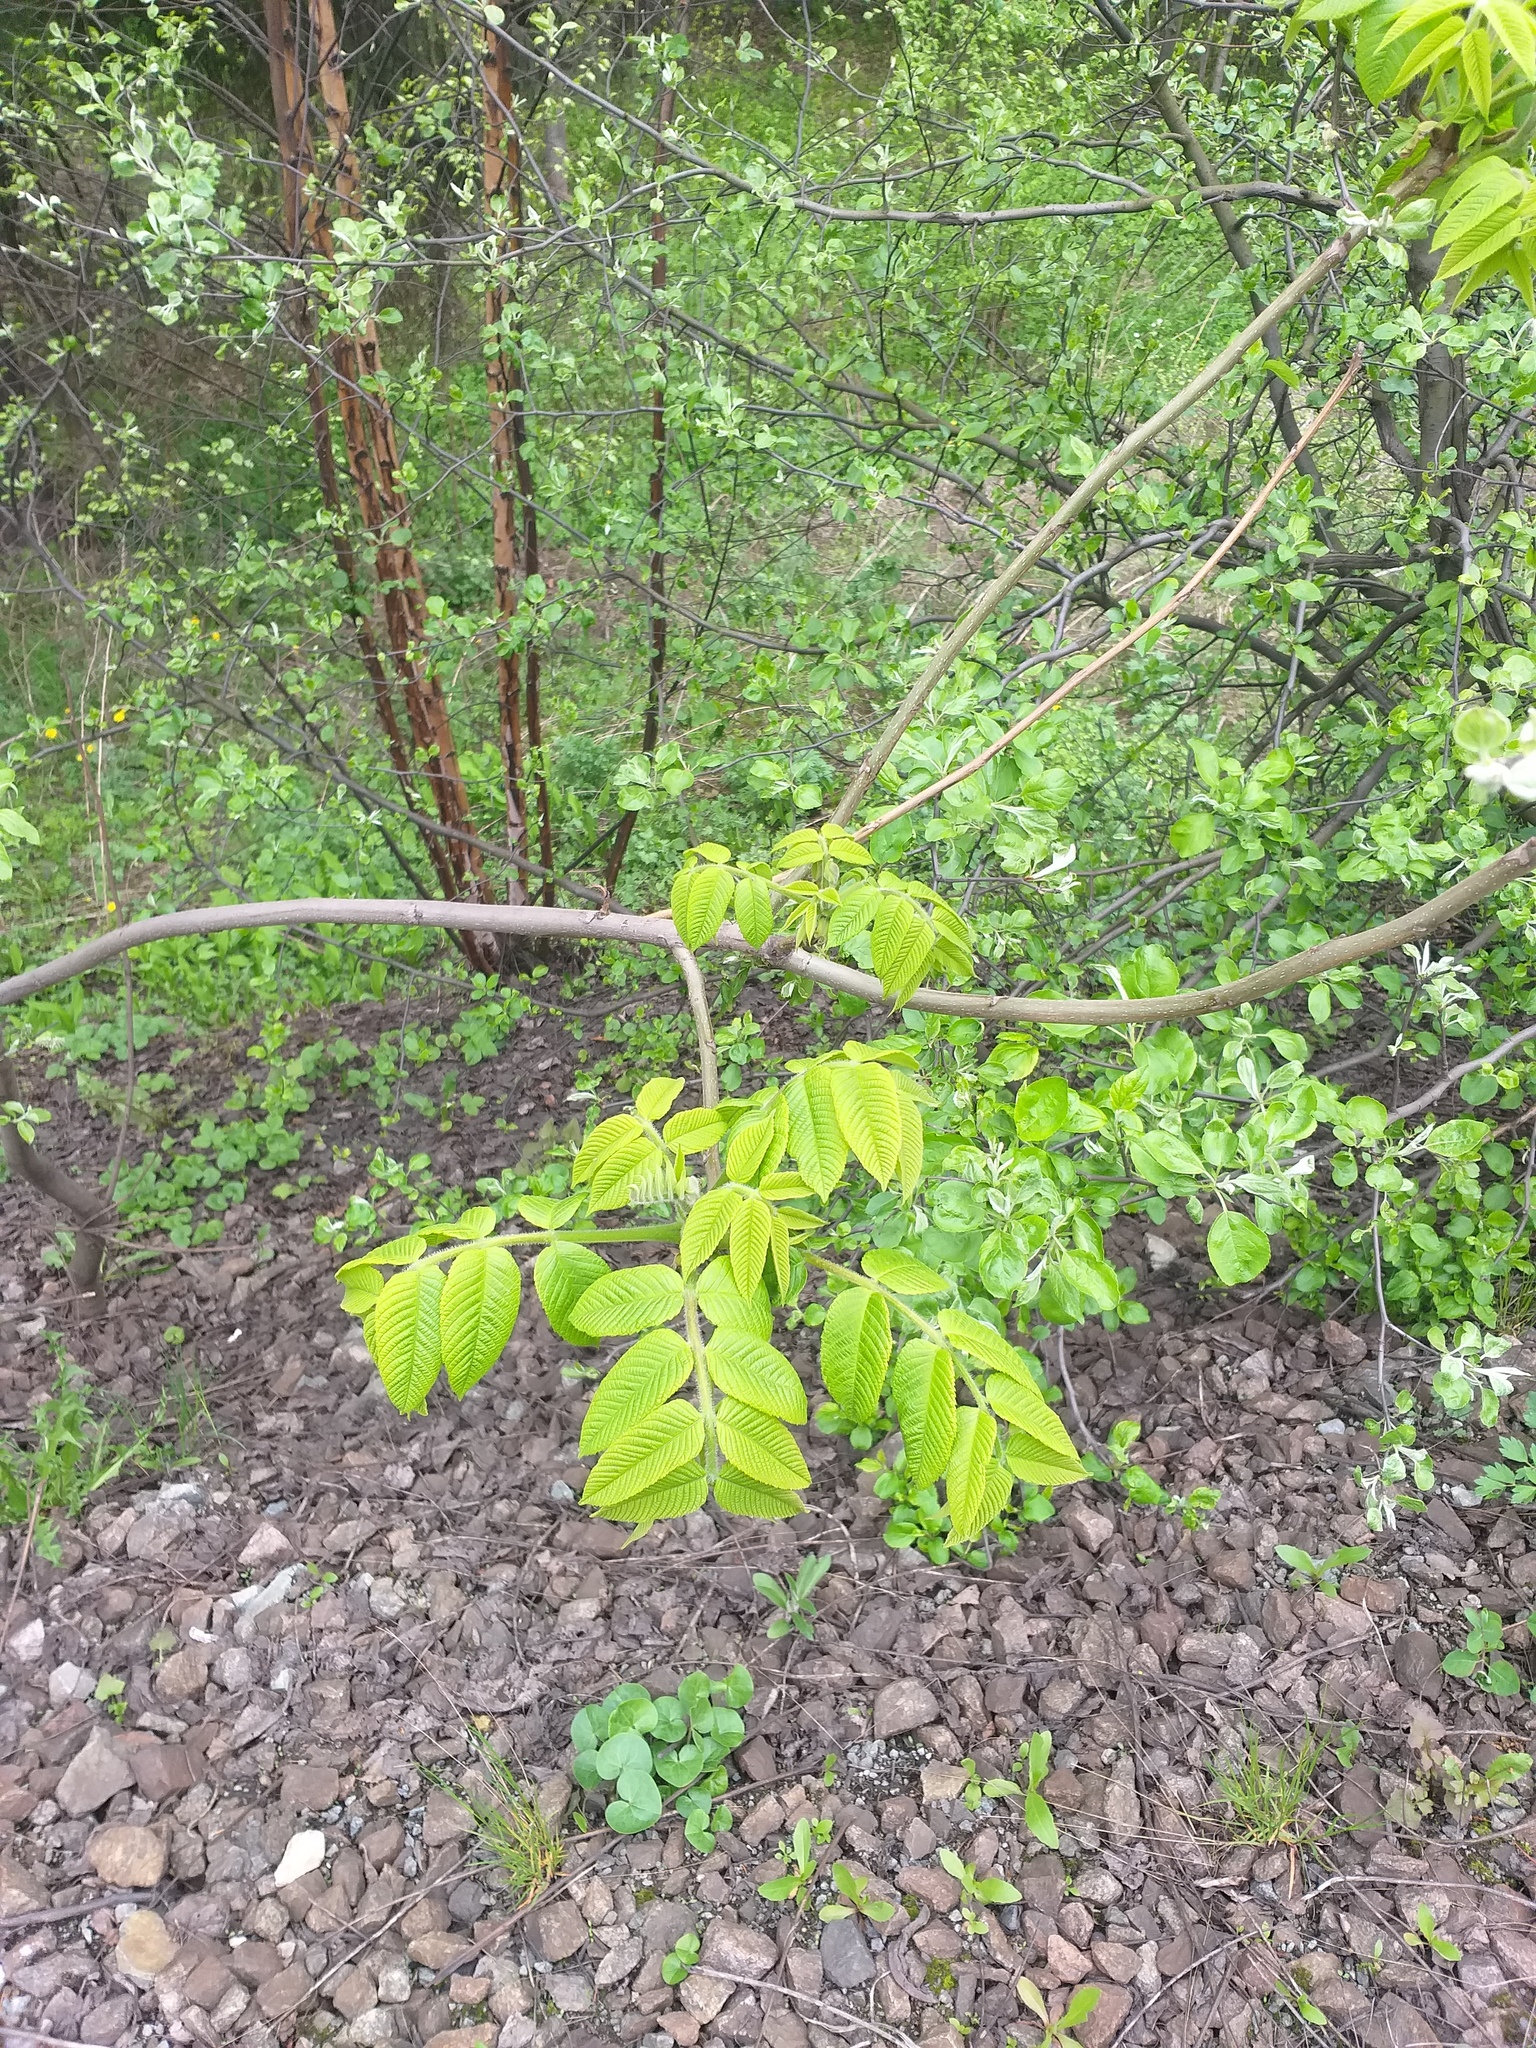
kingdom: Plantae
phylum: Tracheophyta
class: Magnoliopsida
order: Fagales
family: Juglandaceae
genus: Juglans
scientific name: Juglans mandshurica
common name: Manchurian walnut
